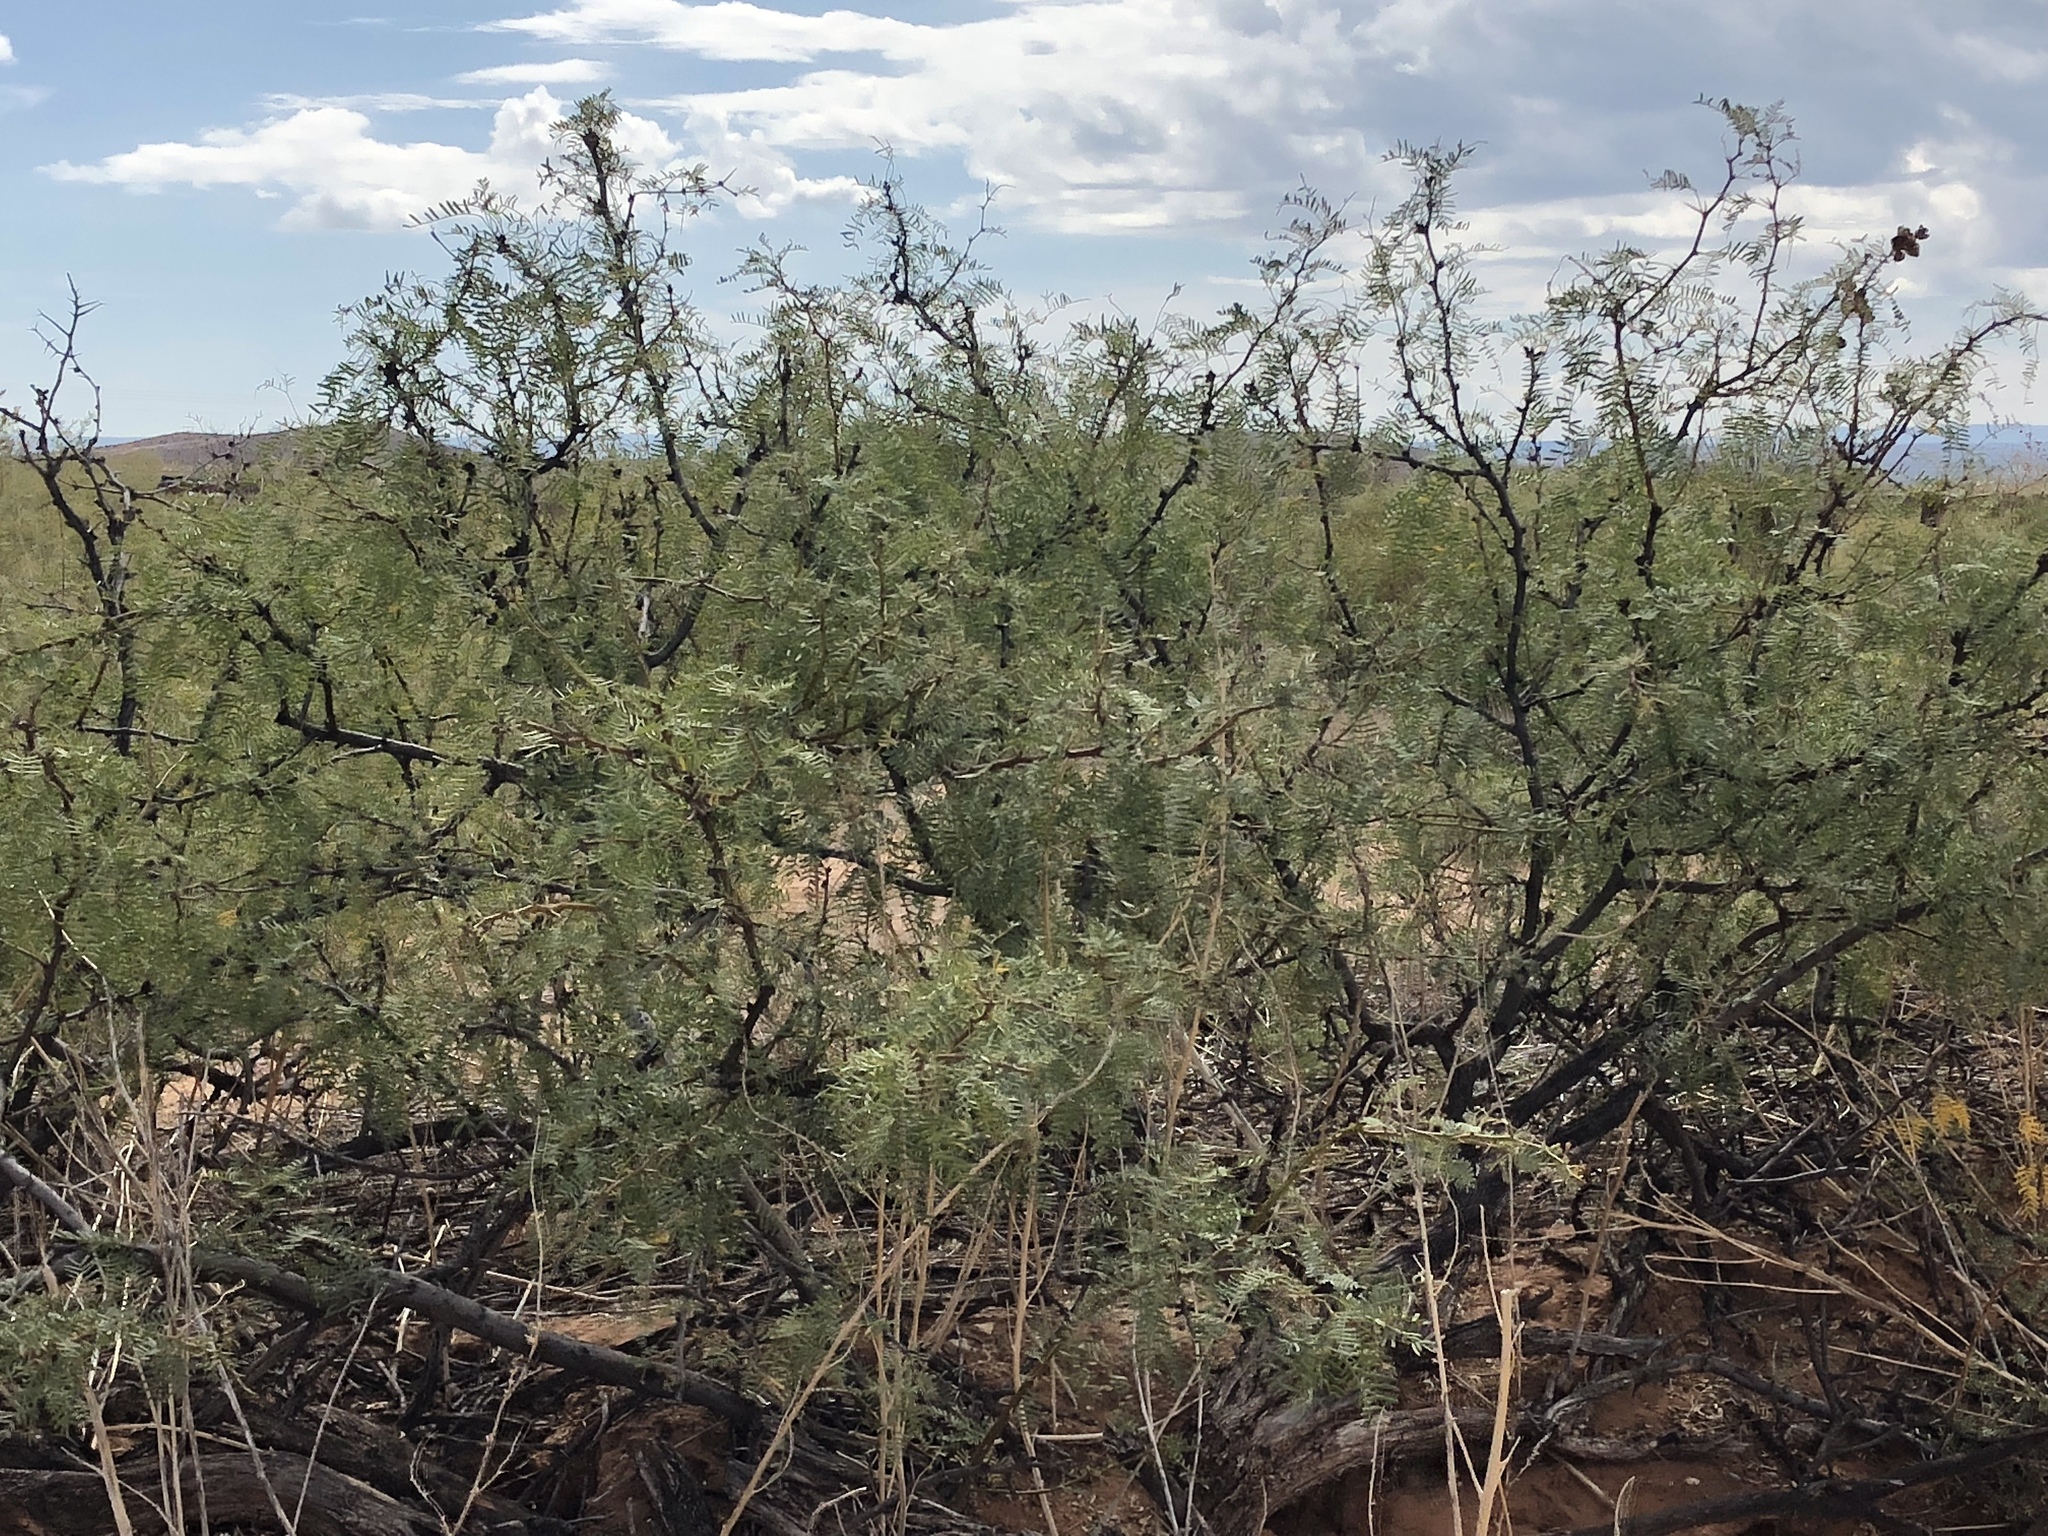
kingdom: Plantae
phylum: Tracheophyta
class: Magnoliopsida
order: Fabales
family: Fabaceae
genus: Prosopis
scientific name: Prosopis glandulosa
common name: Honey mesquite
